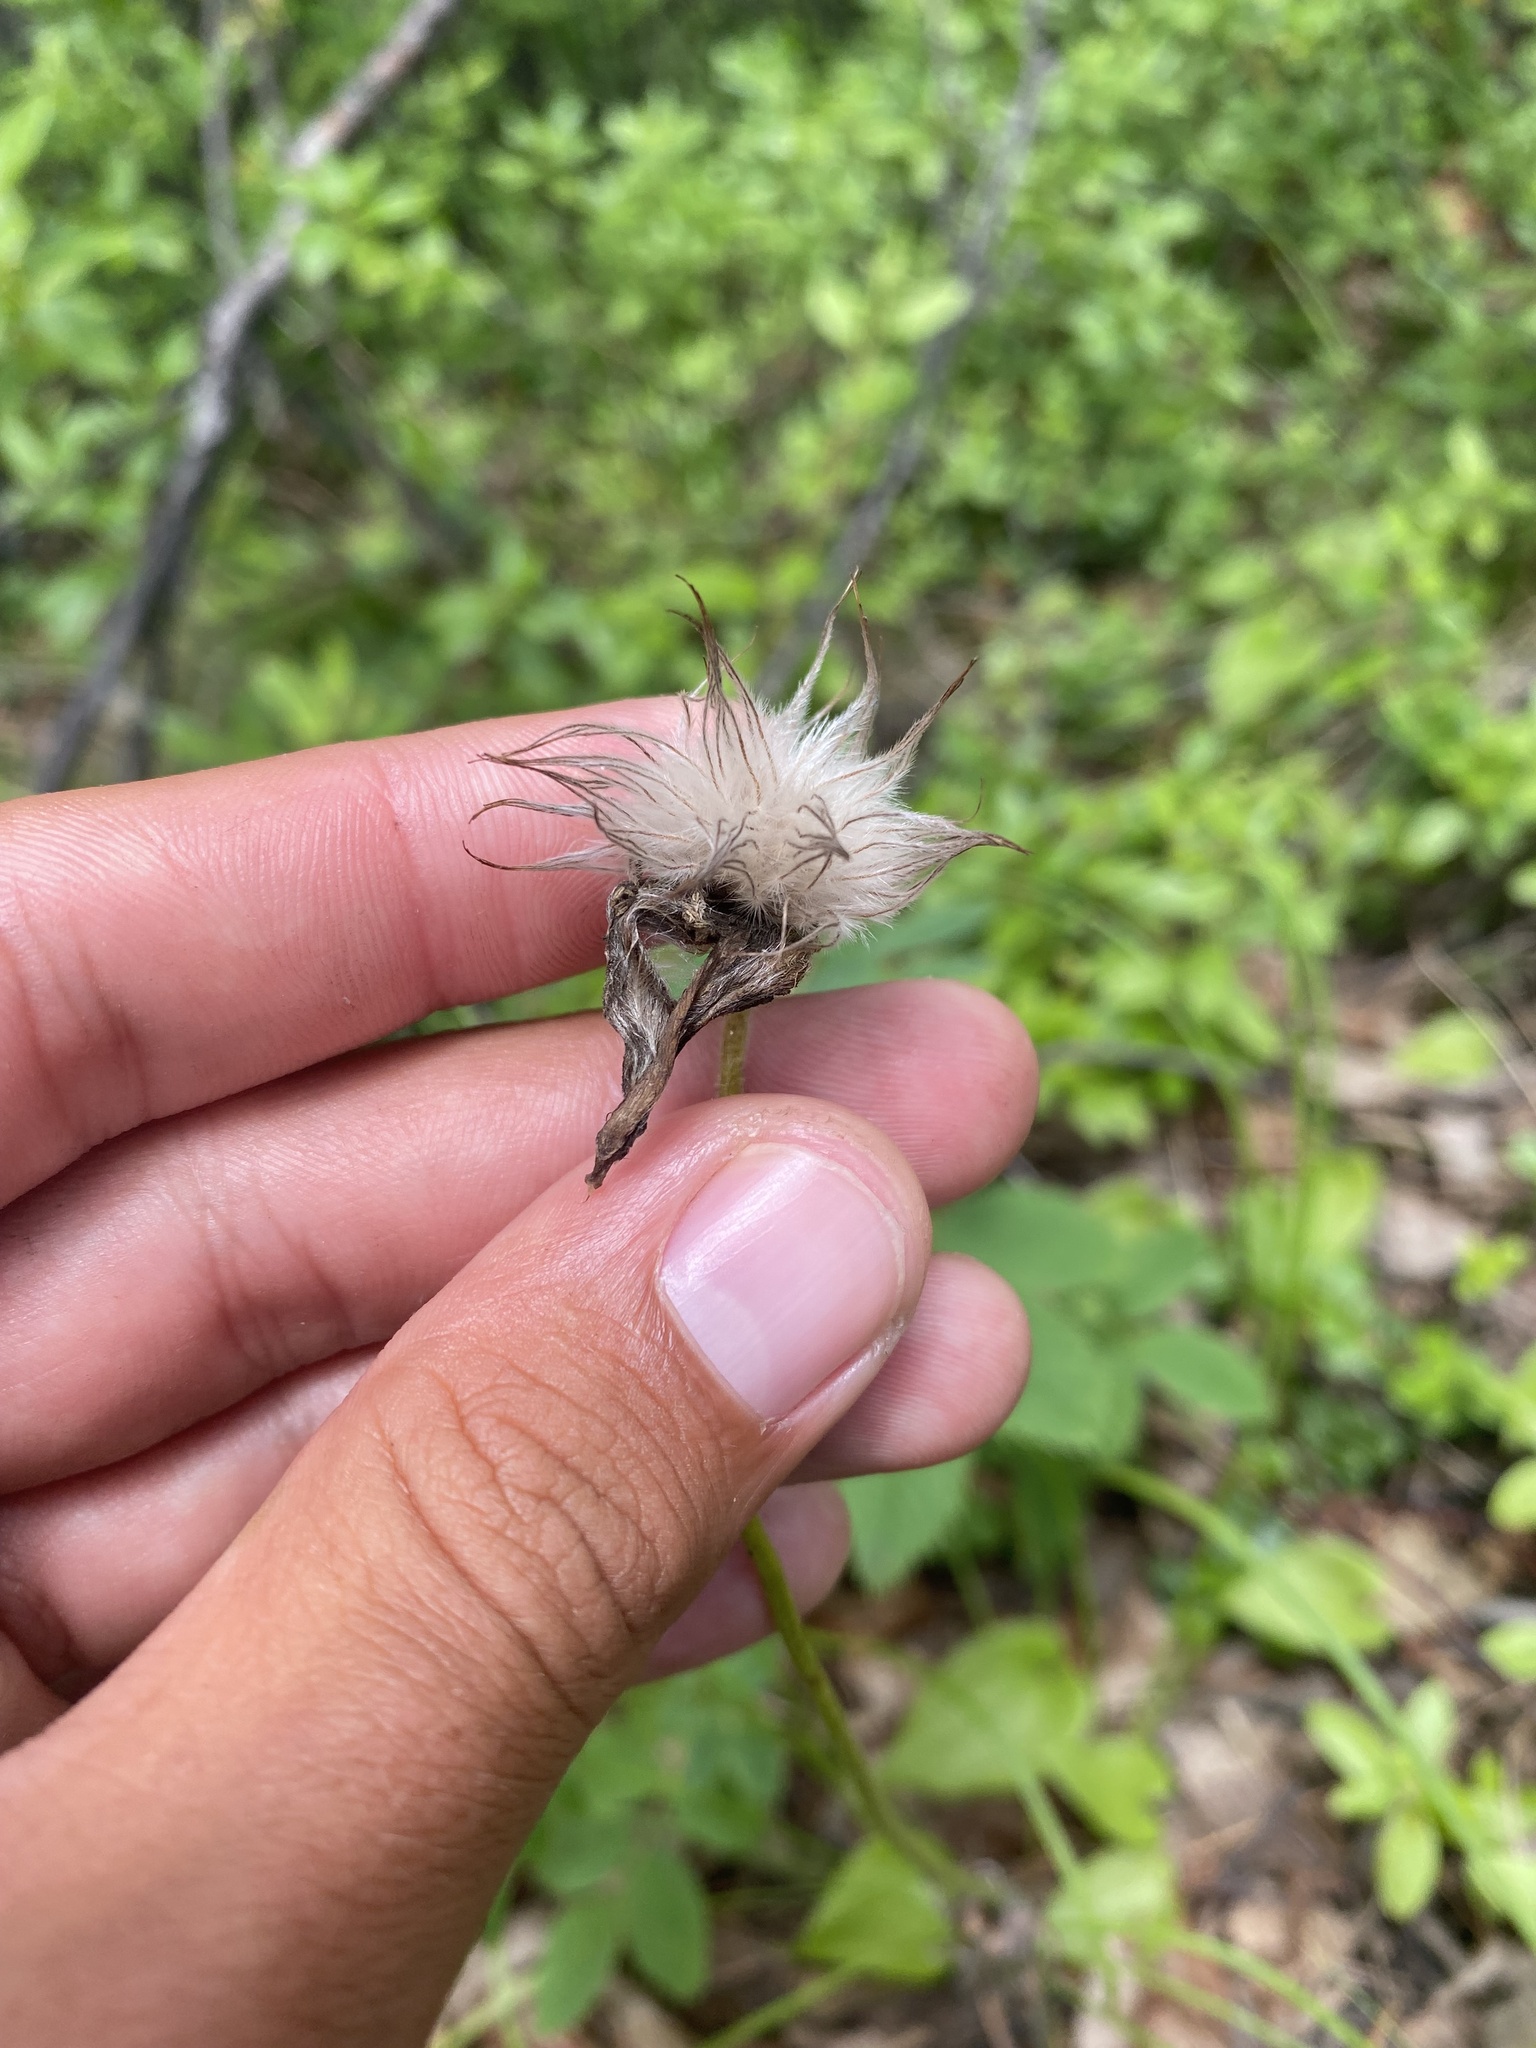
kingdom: Plantae
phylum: Tracheophyta
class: Magnoliopsida
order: Ranunculales
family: Ranunculaceae
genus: Pulsatilla
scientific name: Pulsatilla patens
